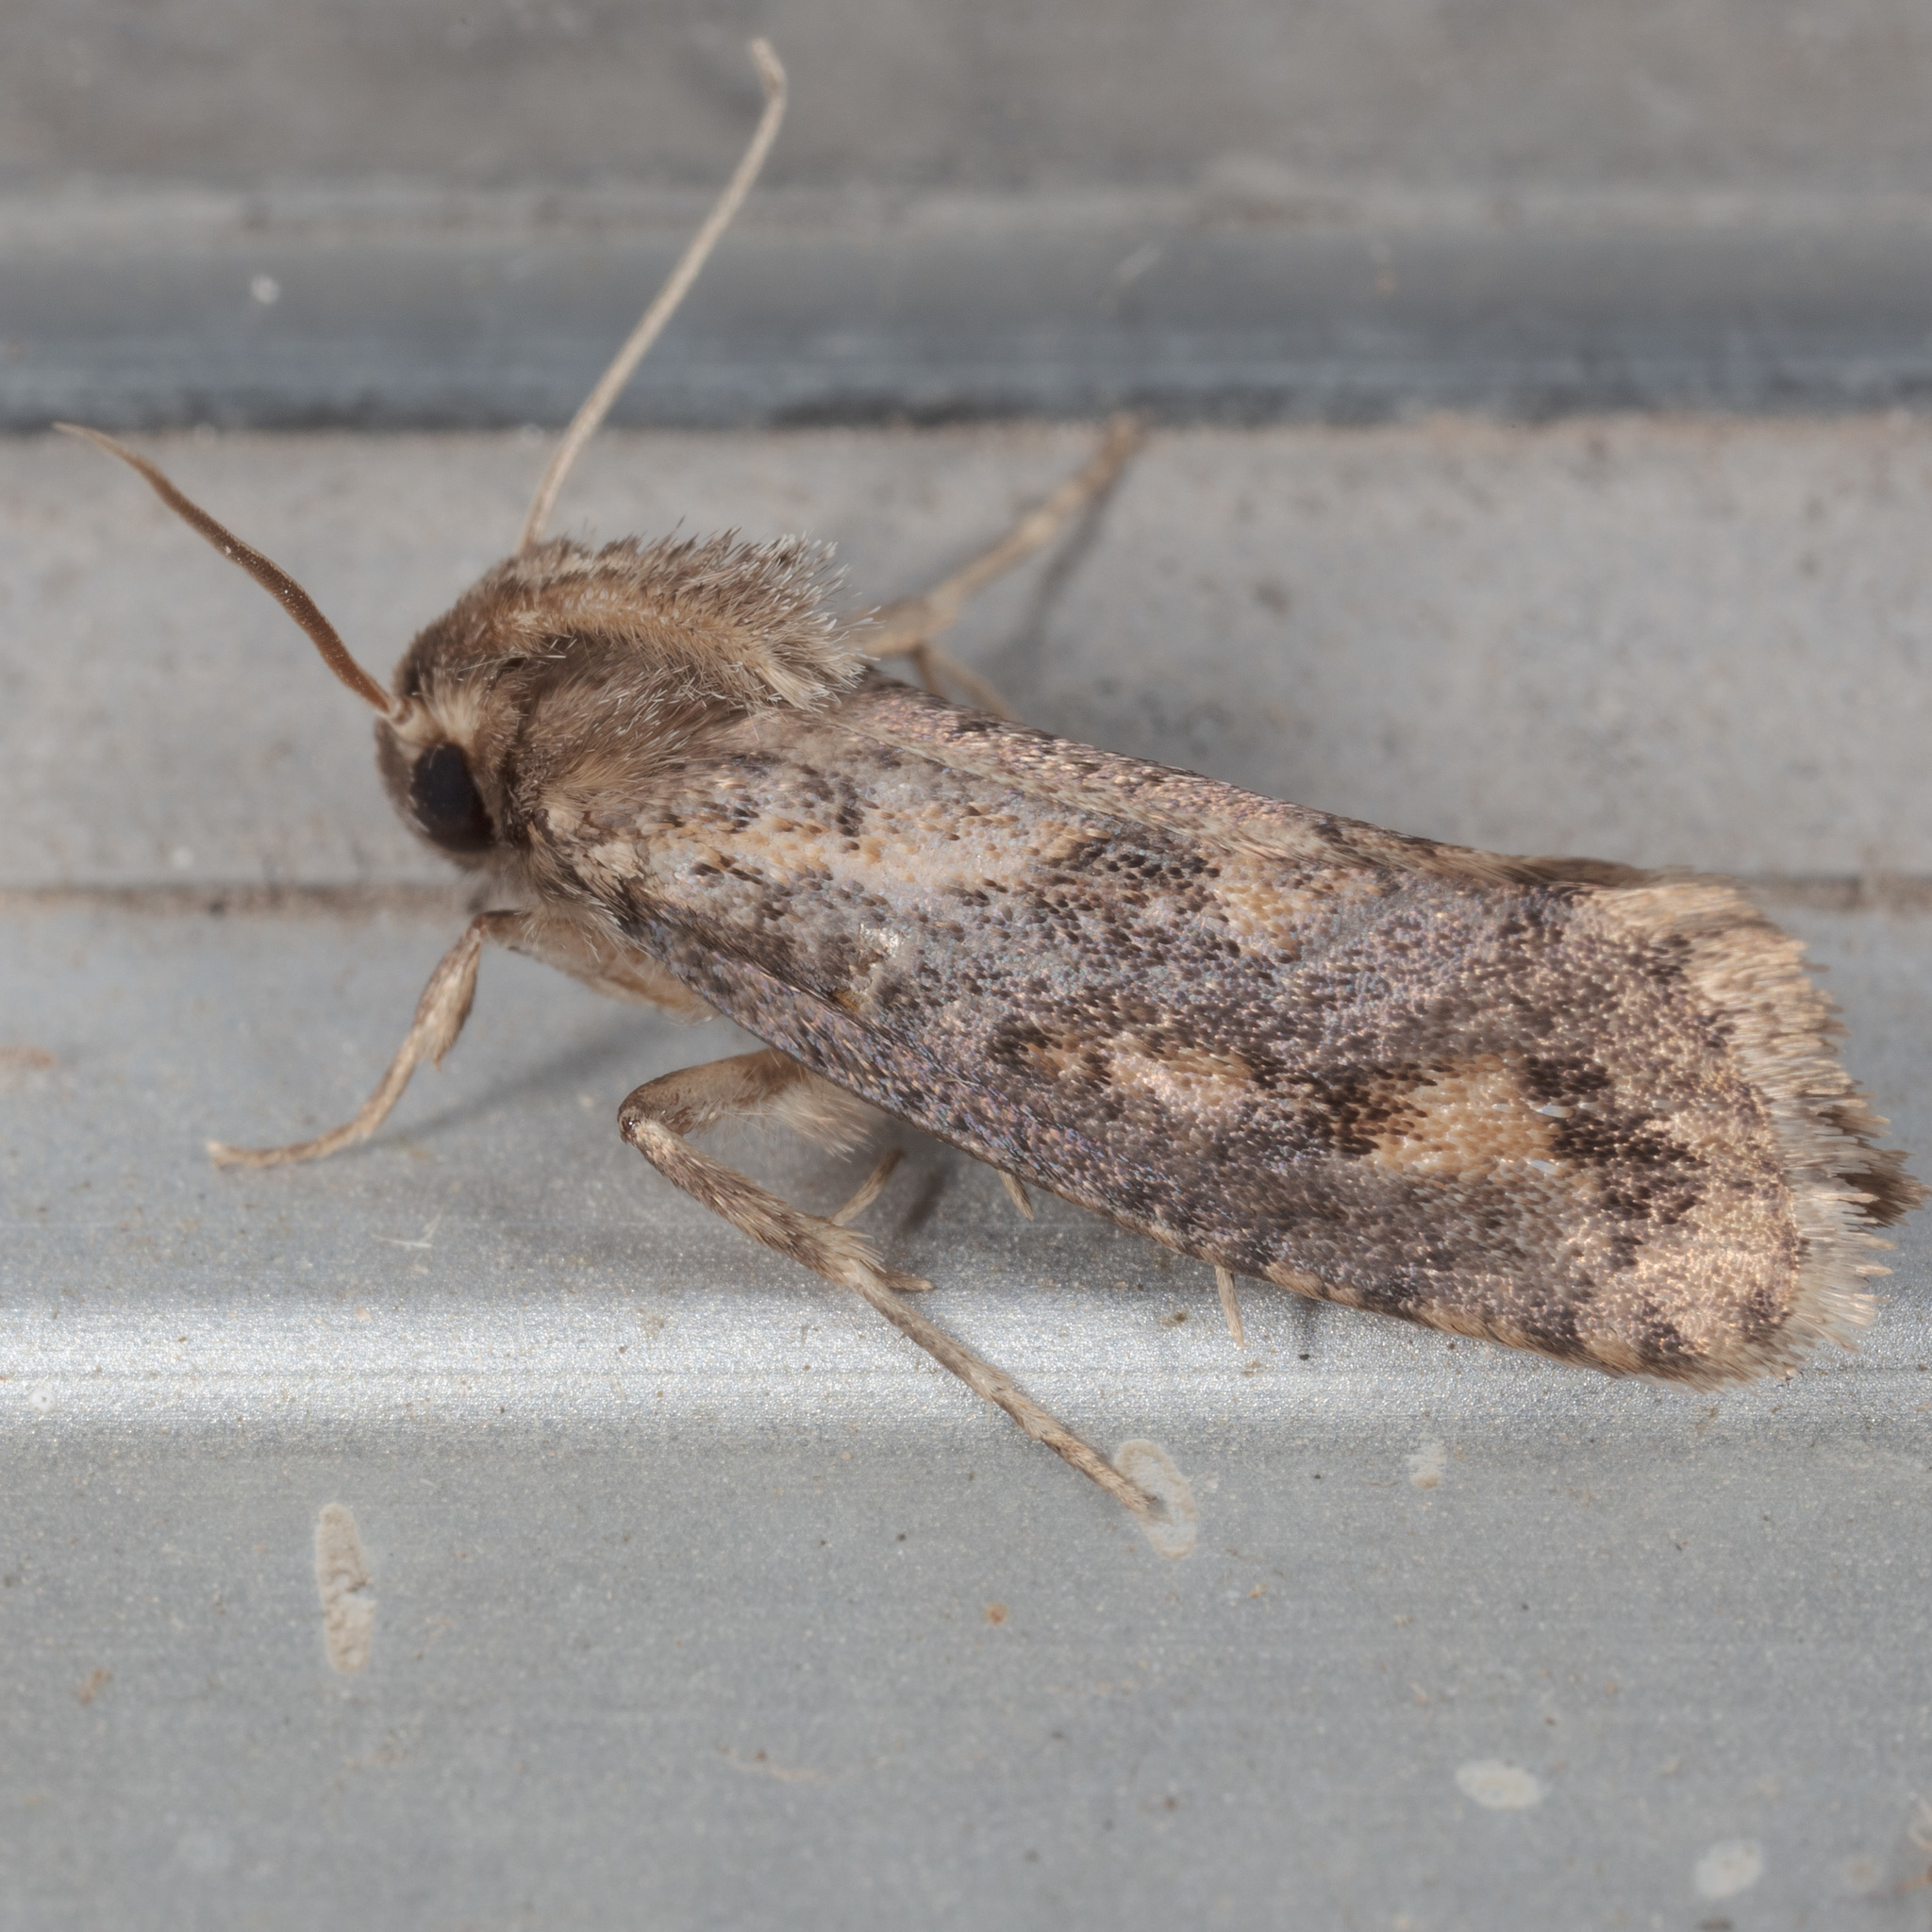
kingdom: Animalia
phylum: Arthropoda
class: Insecta
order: Lepidoptera
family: Tineidae
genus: Acrolophus
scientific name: Acrolophus popeanella
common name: Clemens' grass tubeworm moth
